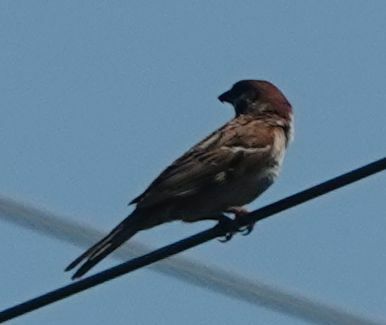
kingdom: Animalia
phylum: Chordata
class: Aves
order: Passeriformes
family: Passeridae
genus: Passer
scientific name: Passer montanus
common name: Eurasian tree sparrow
